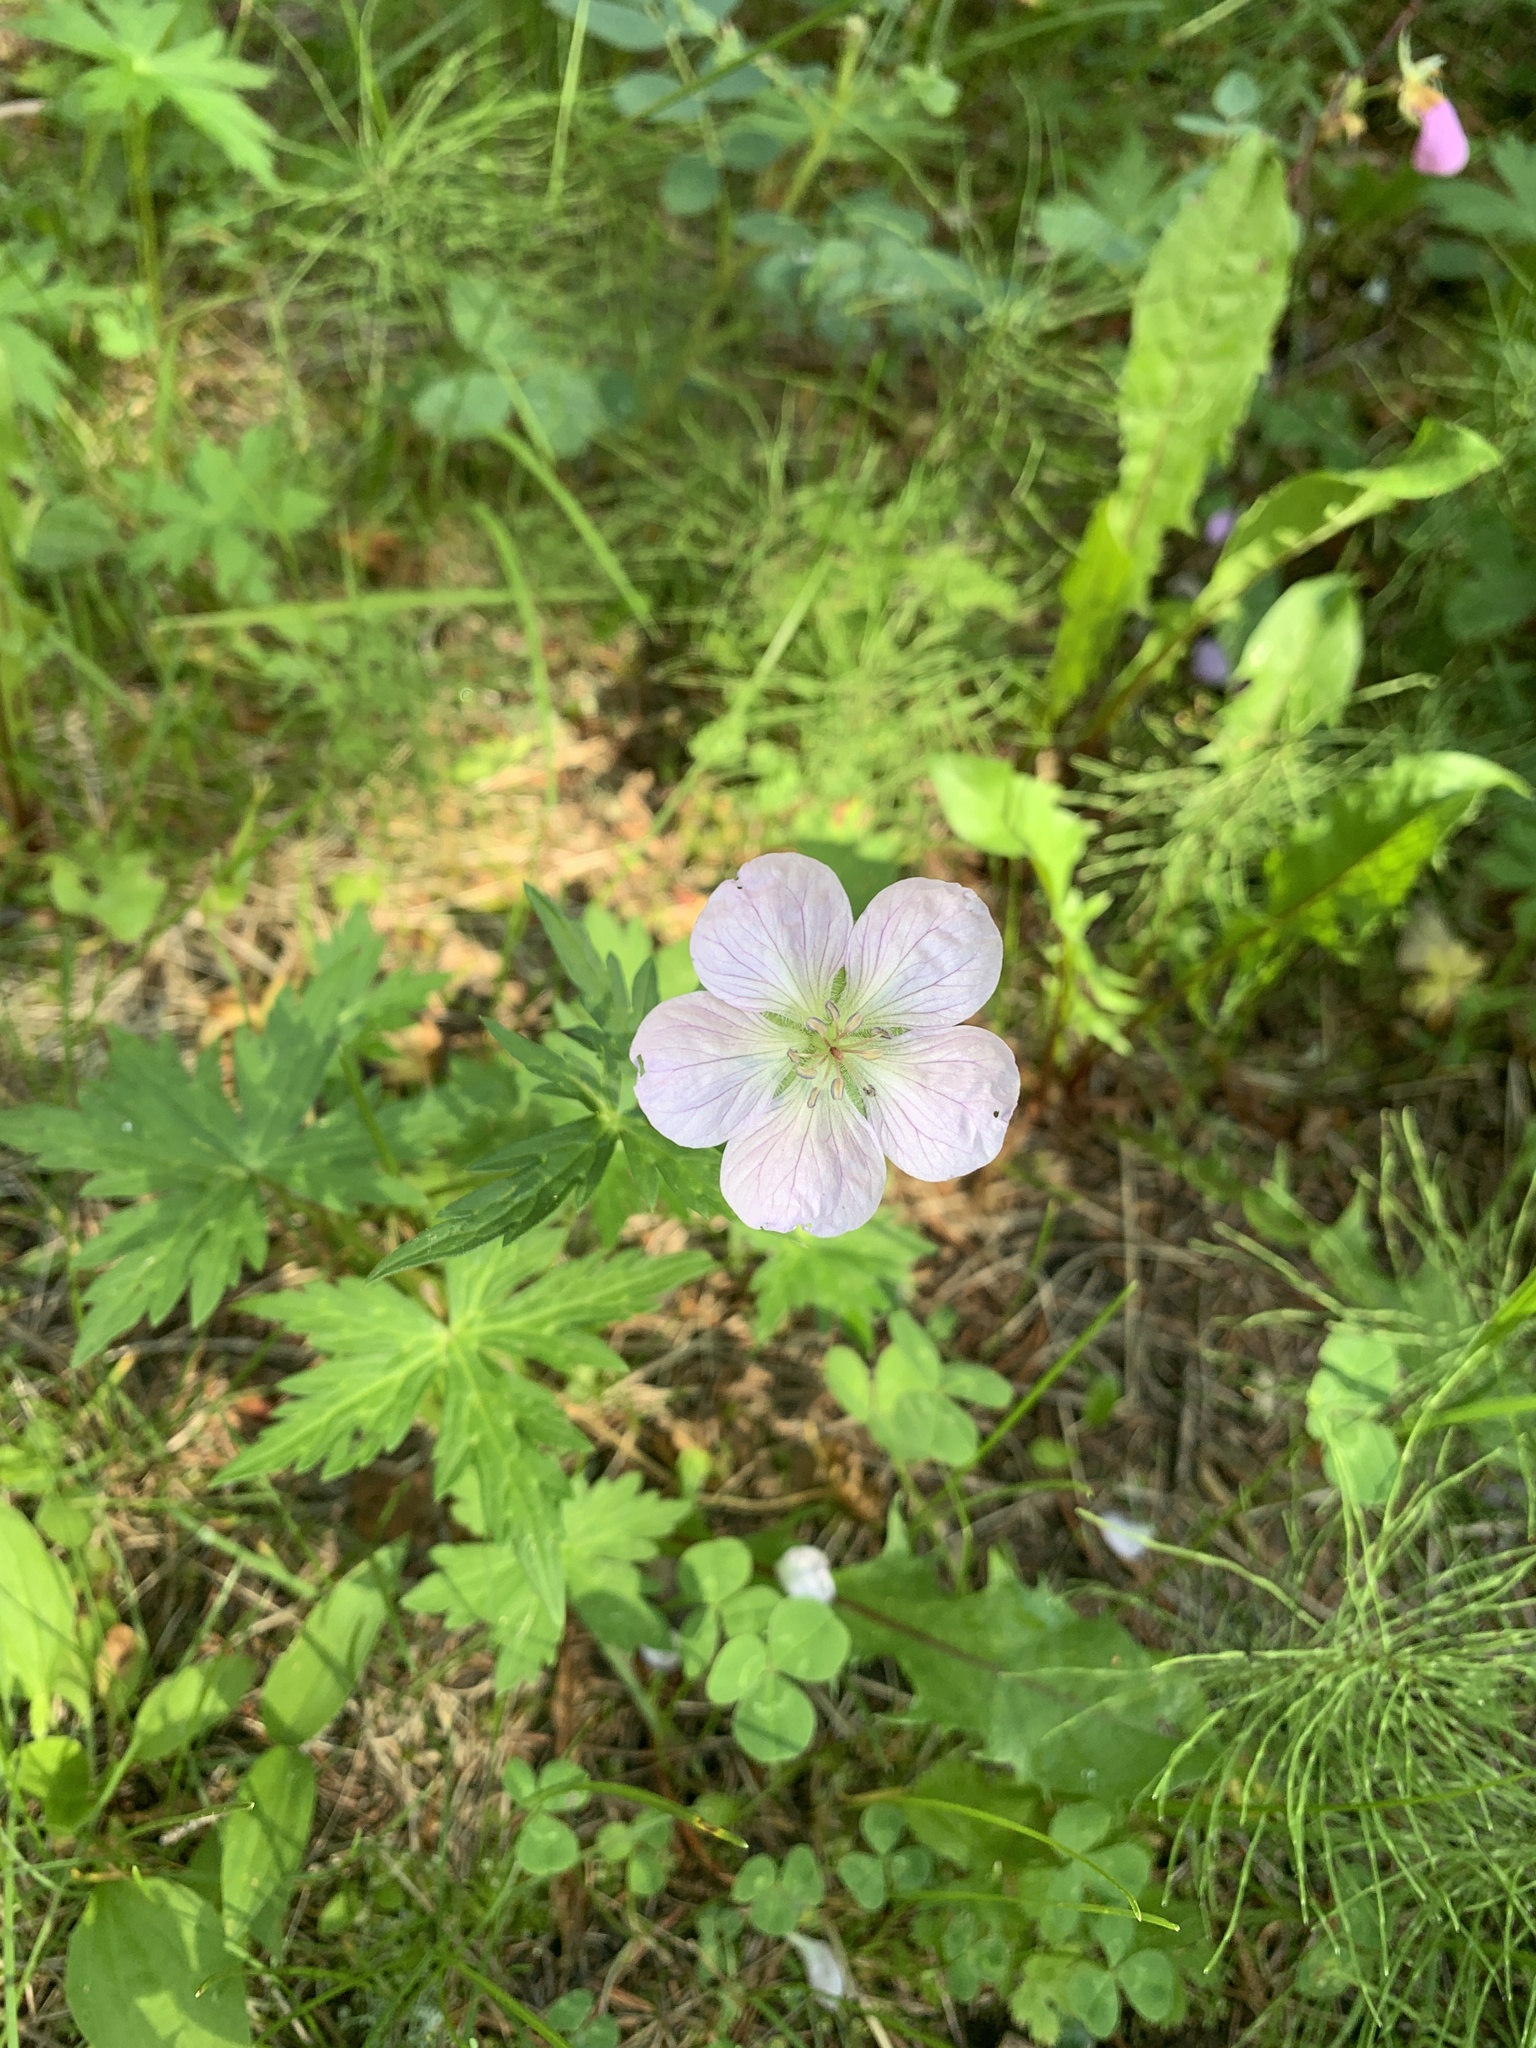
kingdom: Plantae
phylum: Tracheophyta
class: Magnoliopsida
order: Geraniales
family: Geraniaceae
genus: Geranium
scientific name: Geranium richardsonii
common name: Richardson's crane's-bill
